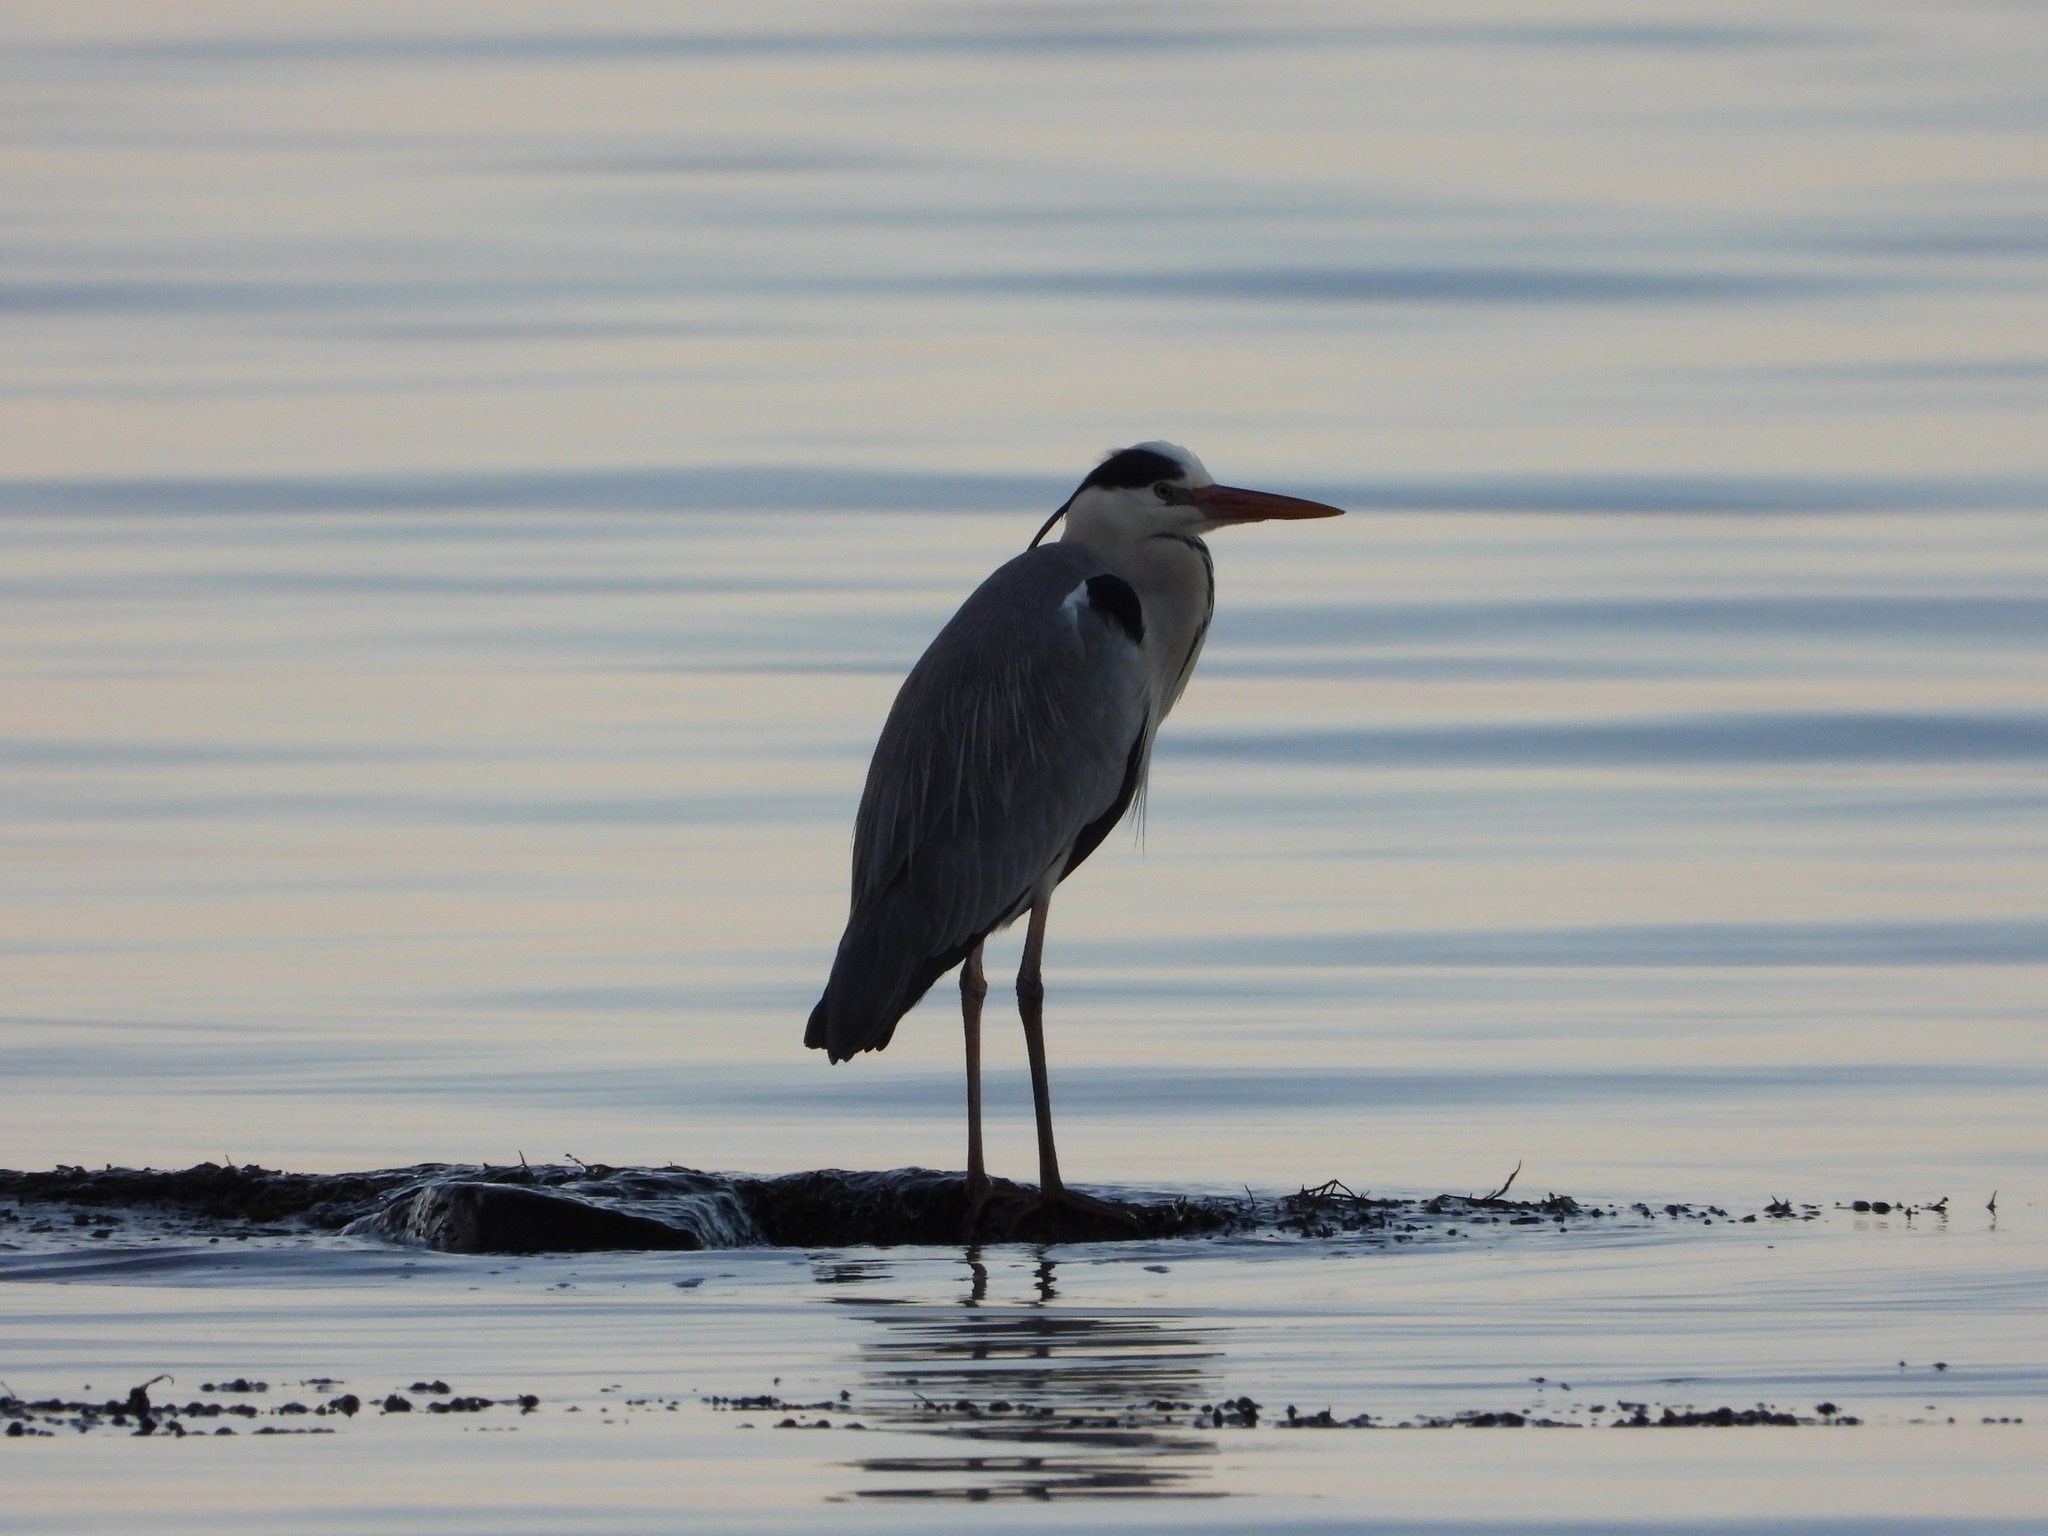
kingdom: Animalia
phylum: Chordata
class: Aves
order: Pelecaniformes
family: Ardeidae
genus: Ardea
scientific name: Ardea cinerea
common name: Grey heron
